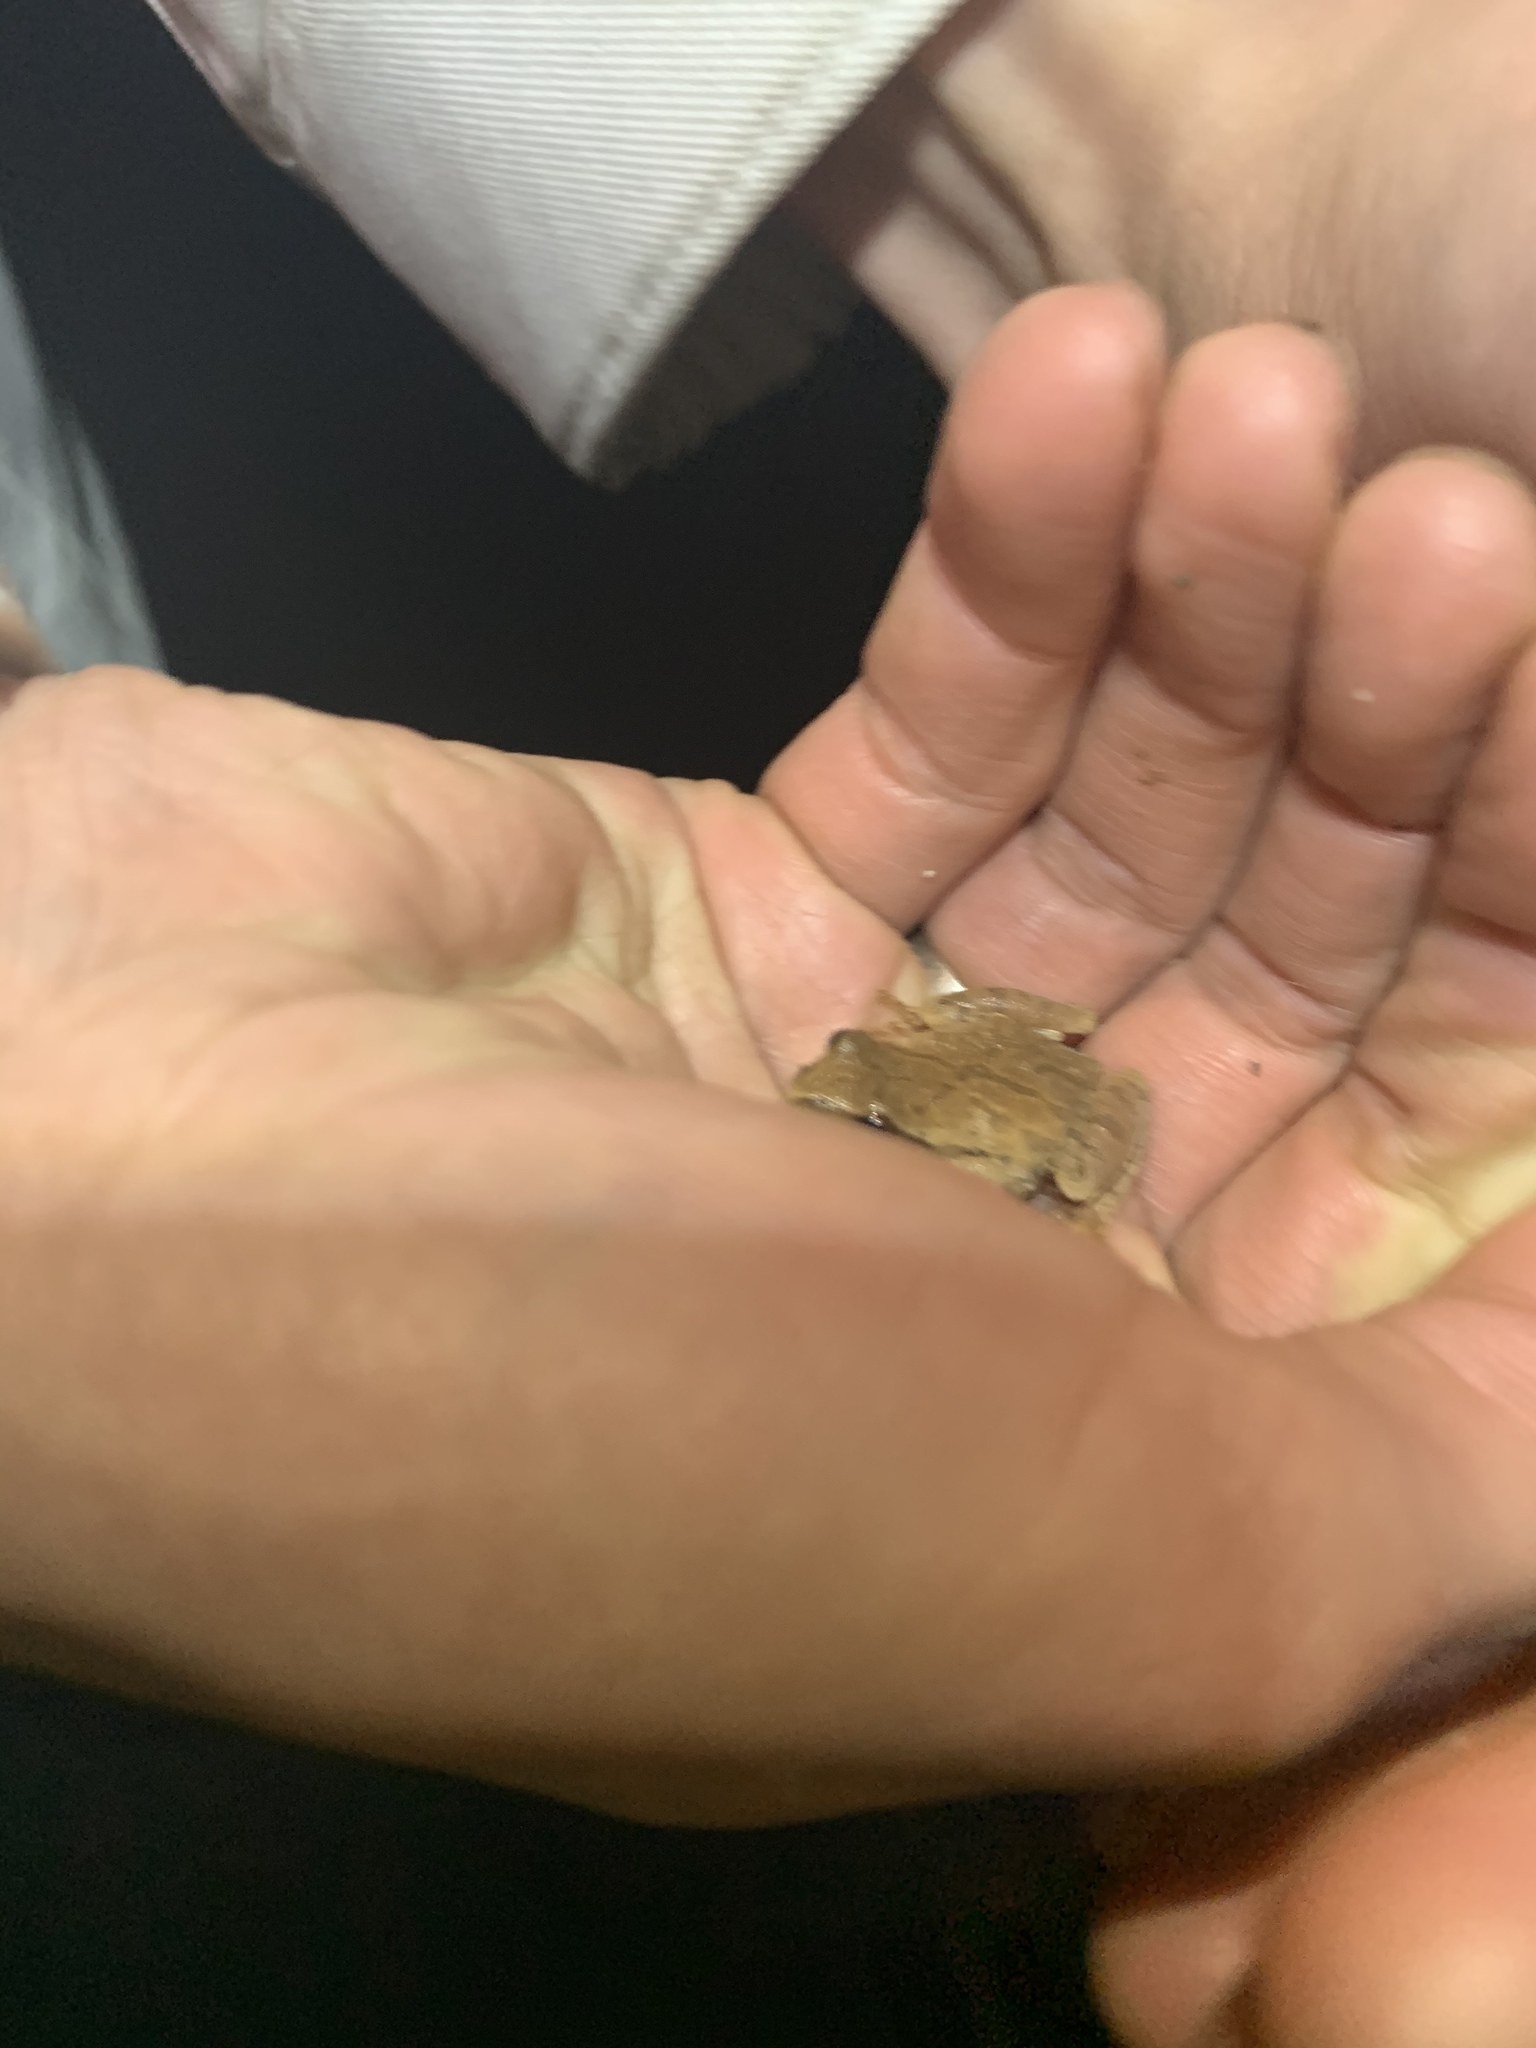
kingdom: Animalia
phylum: Chordata
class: Amphibia
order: Anura
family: Hylidae
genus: Pseudacris
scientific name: Pseudacris crucifer
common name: Spring peeper
